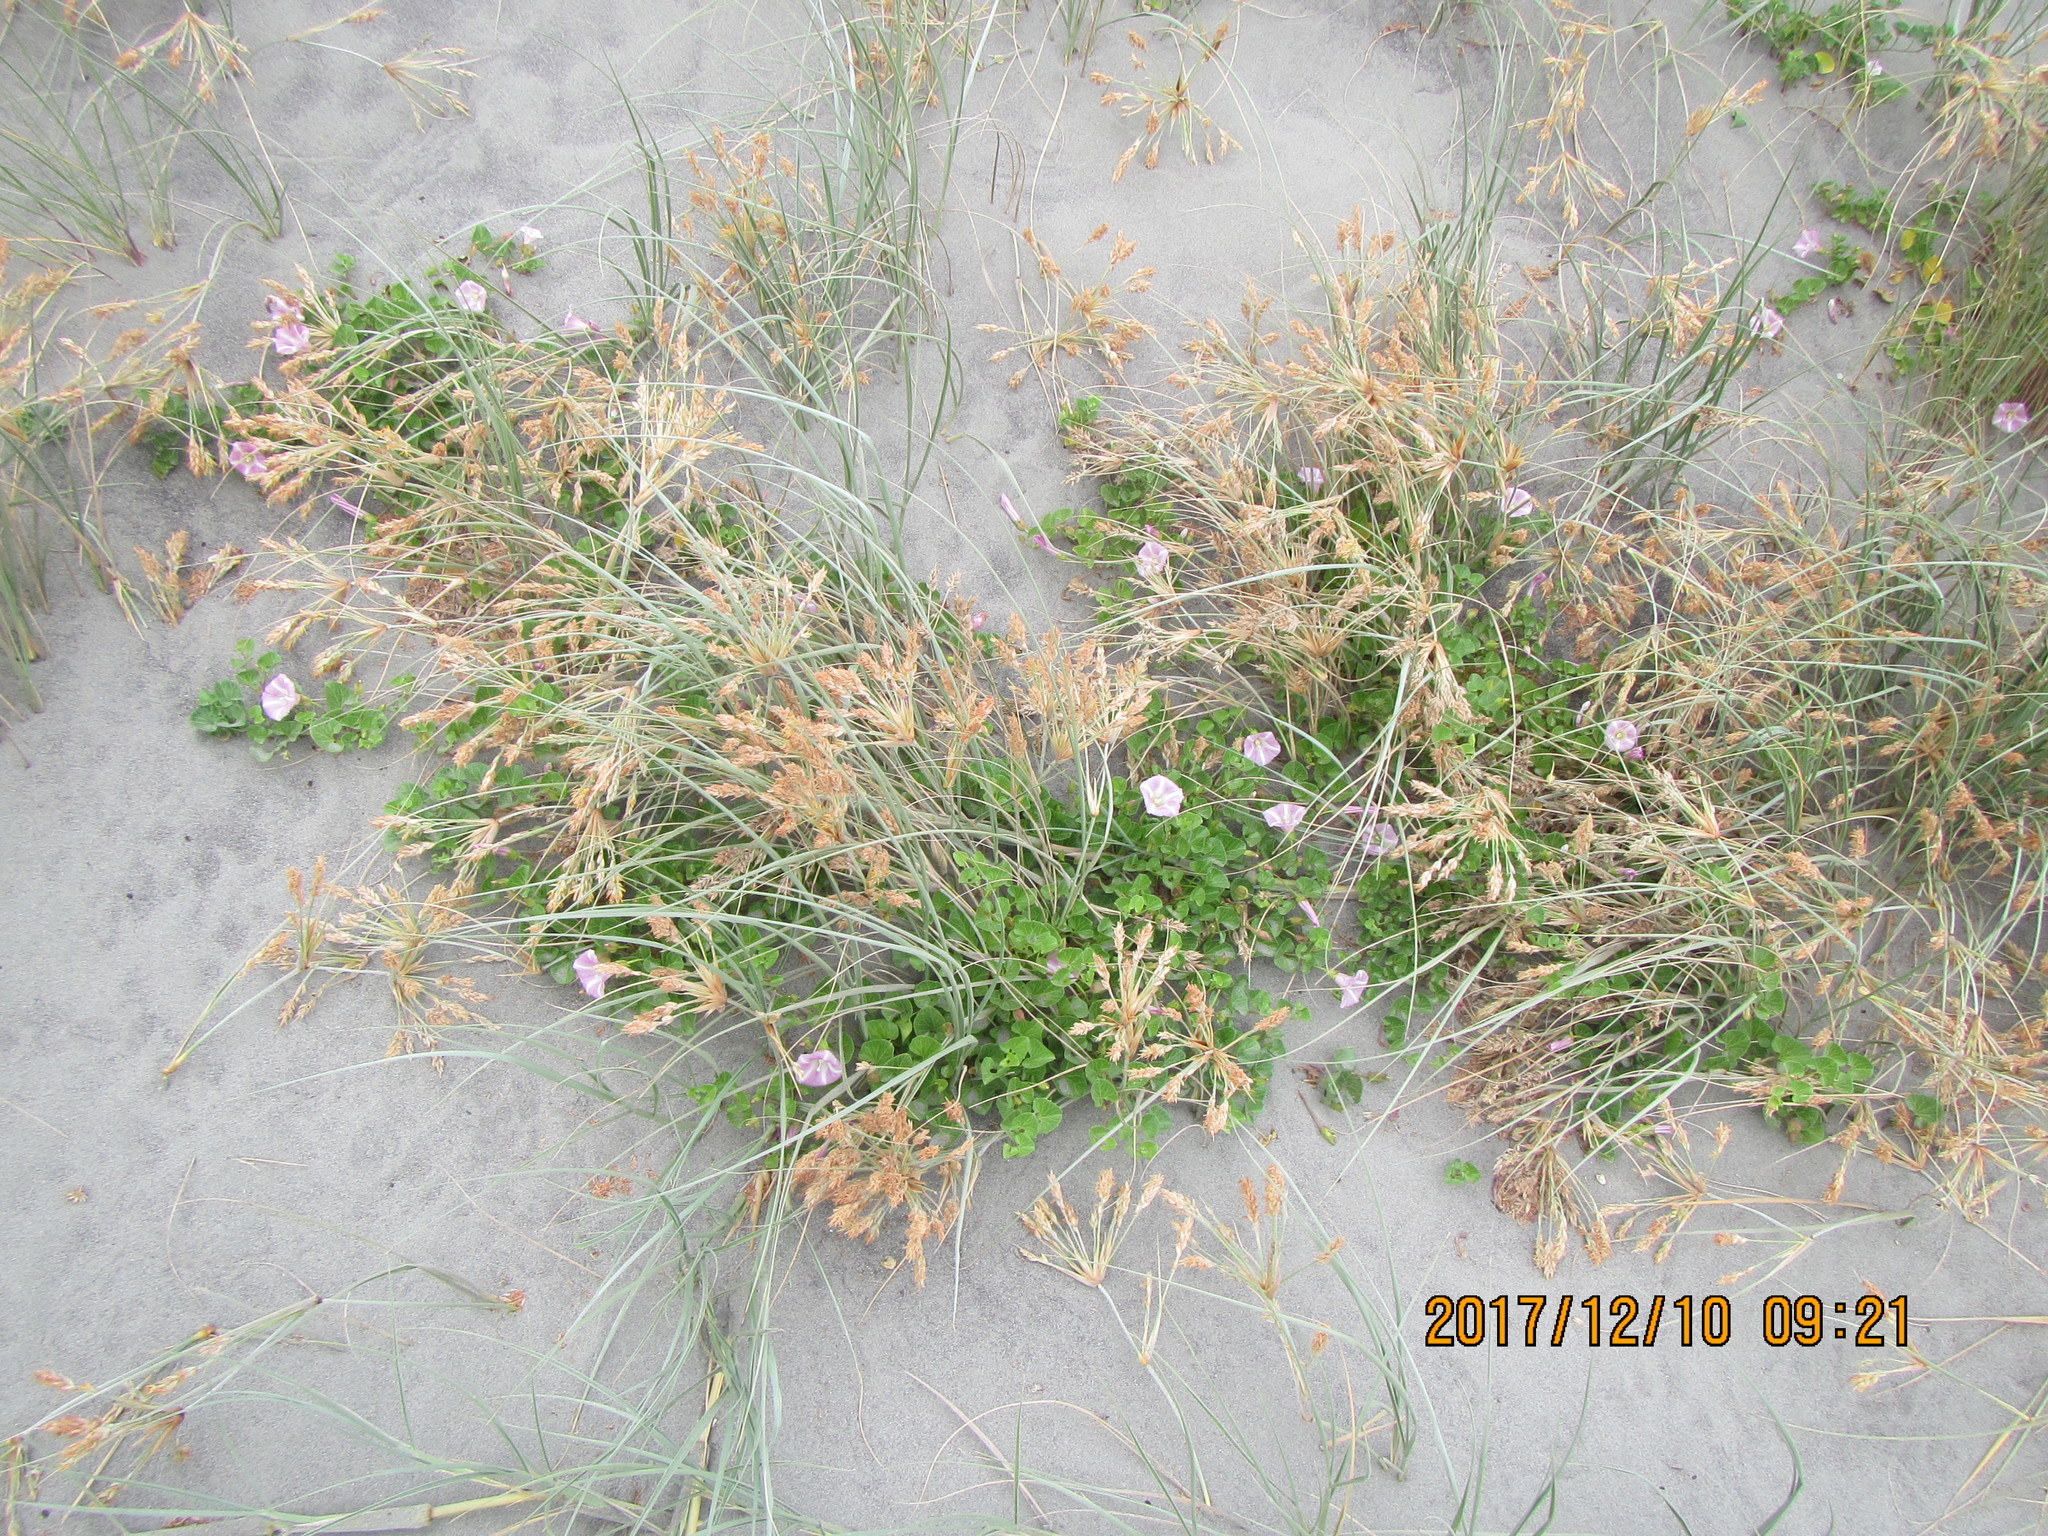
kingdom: Plantae
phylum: Tracheophyta
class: Magnoliopsida
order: Solanales
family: Convolvulaceae
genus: Calystegia
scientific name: Calystegia soldanella
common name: Sea bindweed
